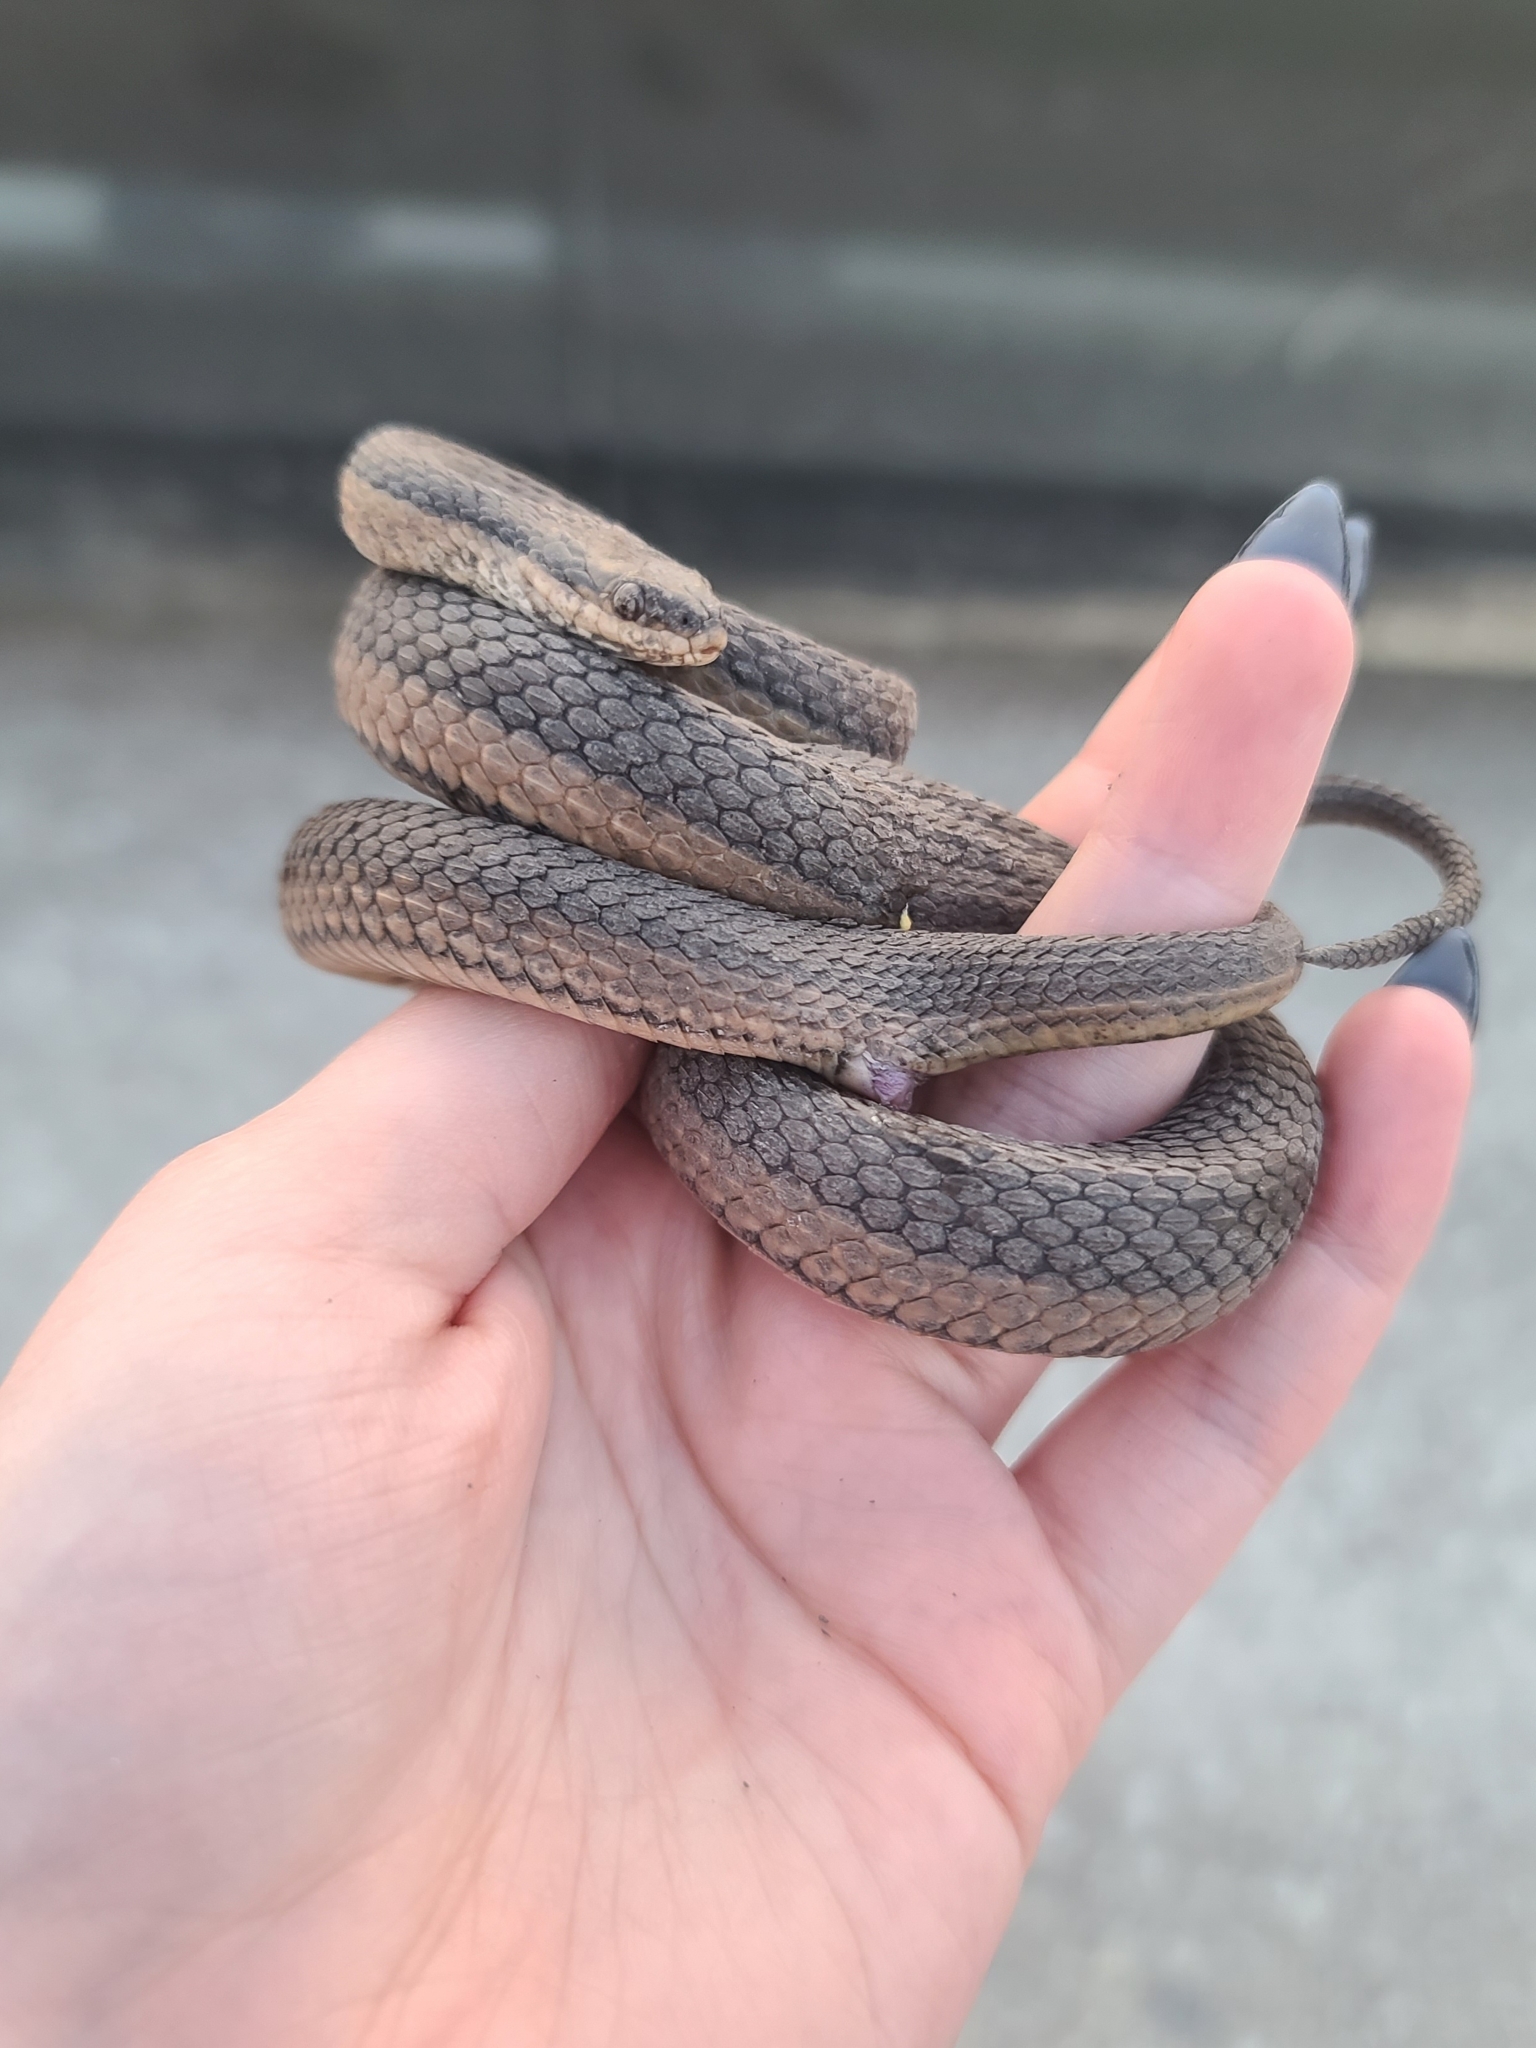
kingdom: Animalia
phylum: Chordata
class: Squamata
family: Colubridae
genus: Regina
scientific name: Regina grahamii
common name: Graham's crayfish snake
